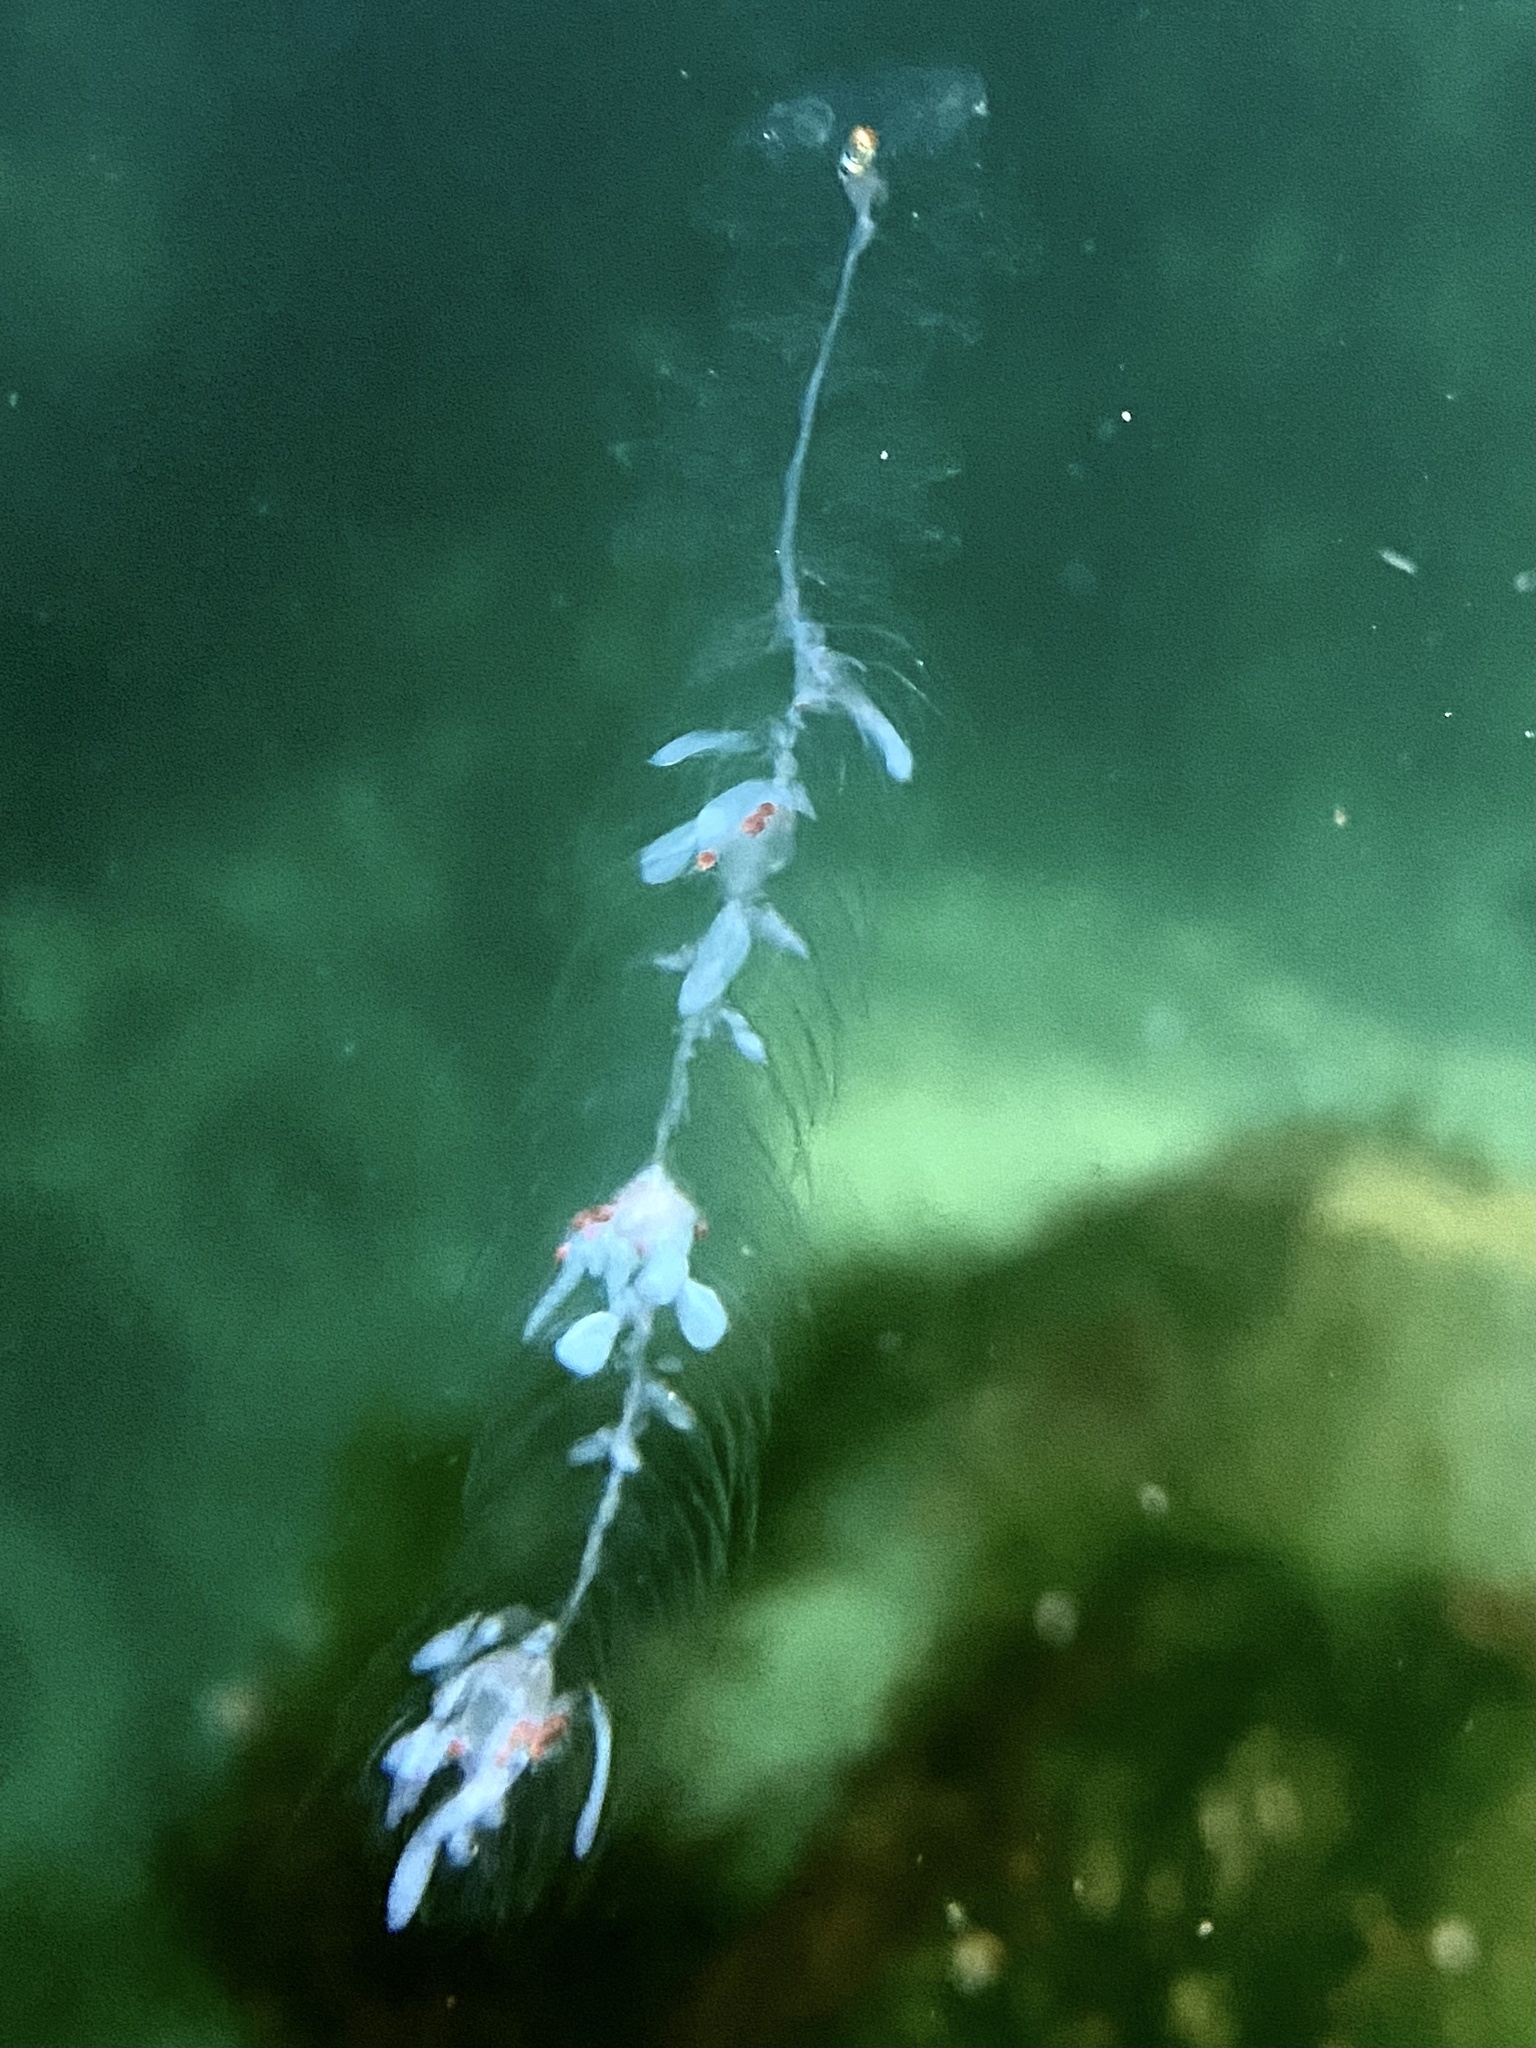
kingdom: Animalia
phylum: Cnidaria
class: Hydrozoa
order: Siphonophorae
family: Agalmatidae
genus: Nanomia
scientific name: Nanomia cara
